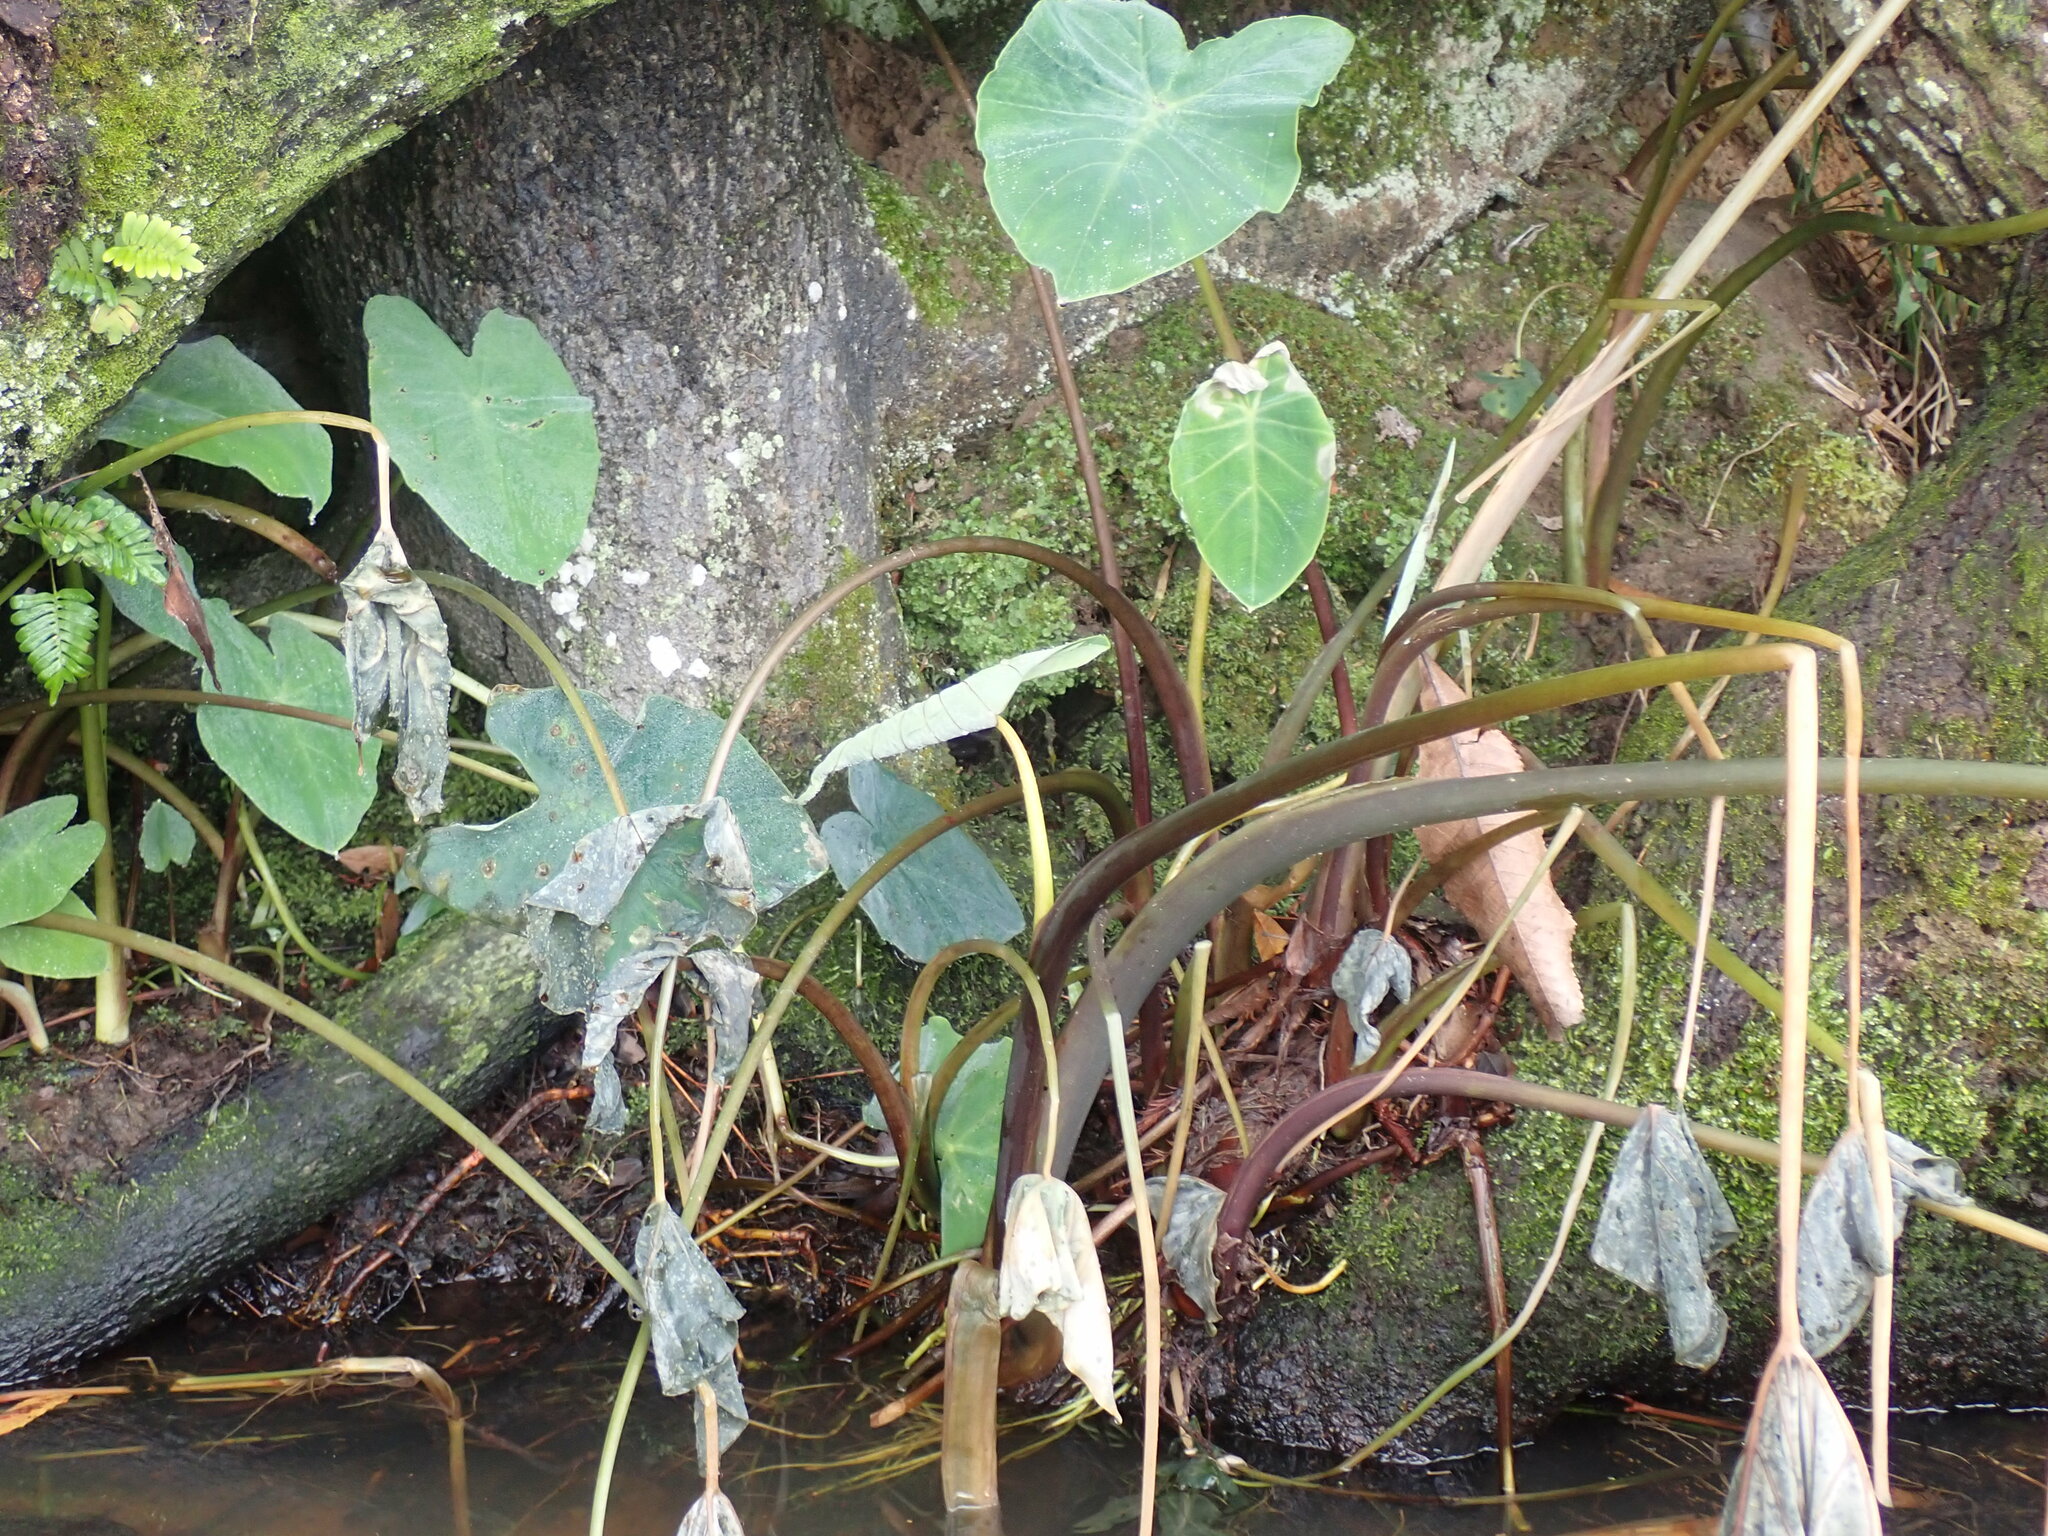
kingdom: Plantae
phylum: Tracheophyta
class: Liliopsida
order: Alismatales
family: Araceae
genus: Colocasia
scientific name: Colocasia esculenta
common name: Taro
